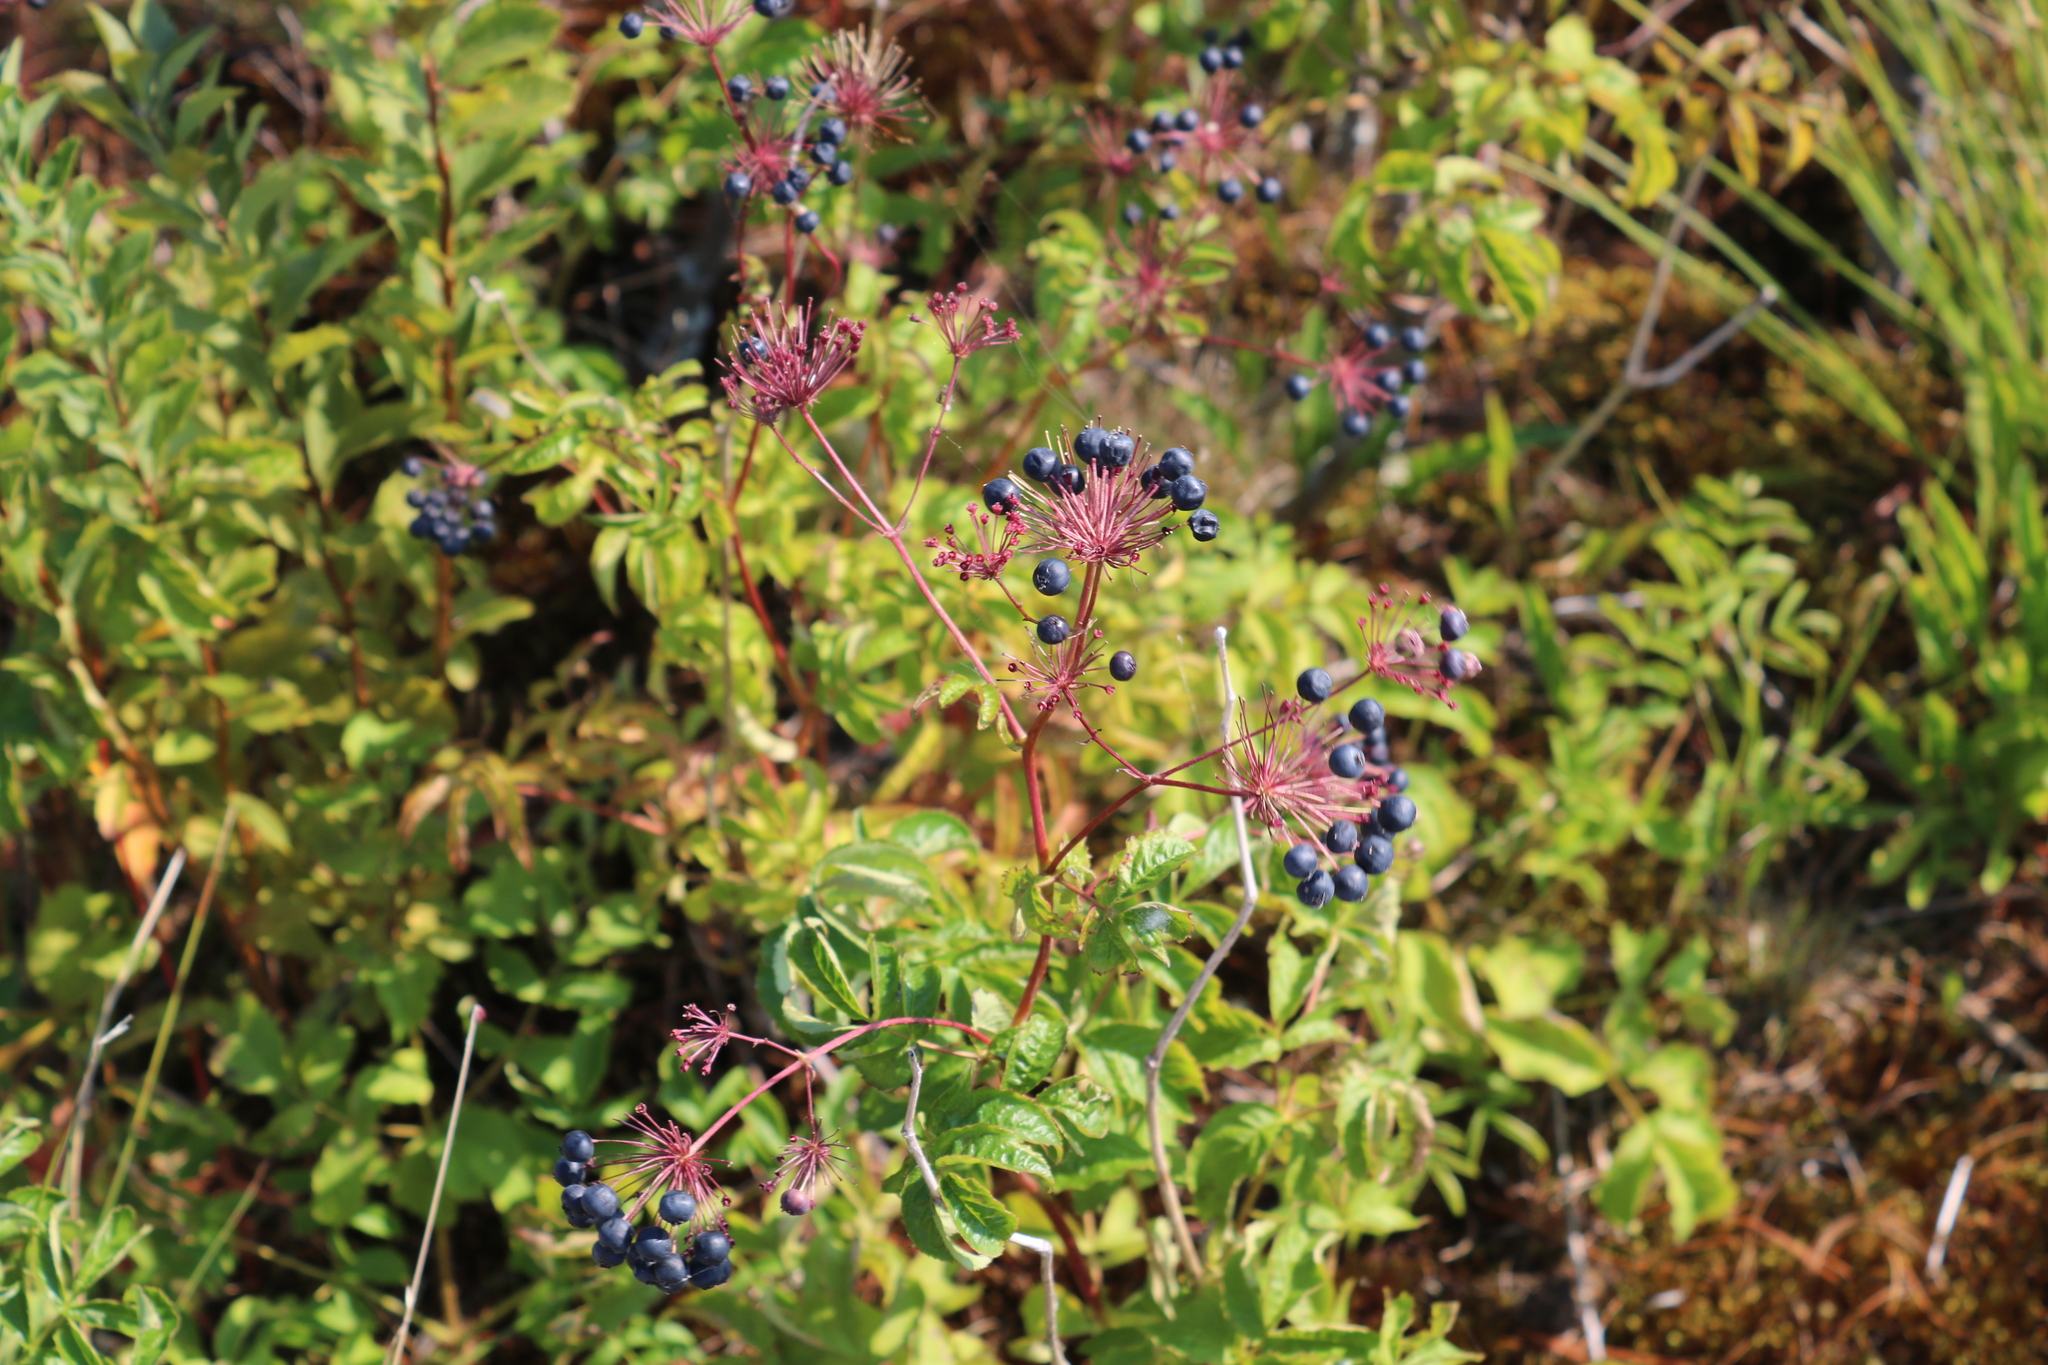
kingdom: Plantae
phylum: Tracheophyta
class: Magnoliopsida
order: Apiales
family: Araliaceae
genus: Aralia
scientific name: Aralia hispida
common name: Bristly sarsaparilla
